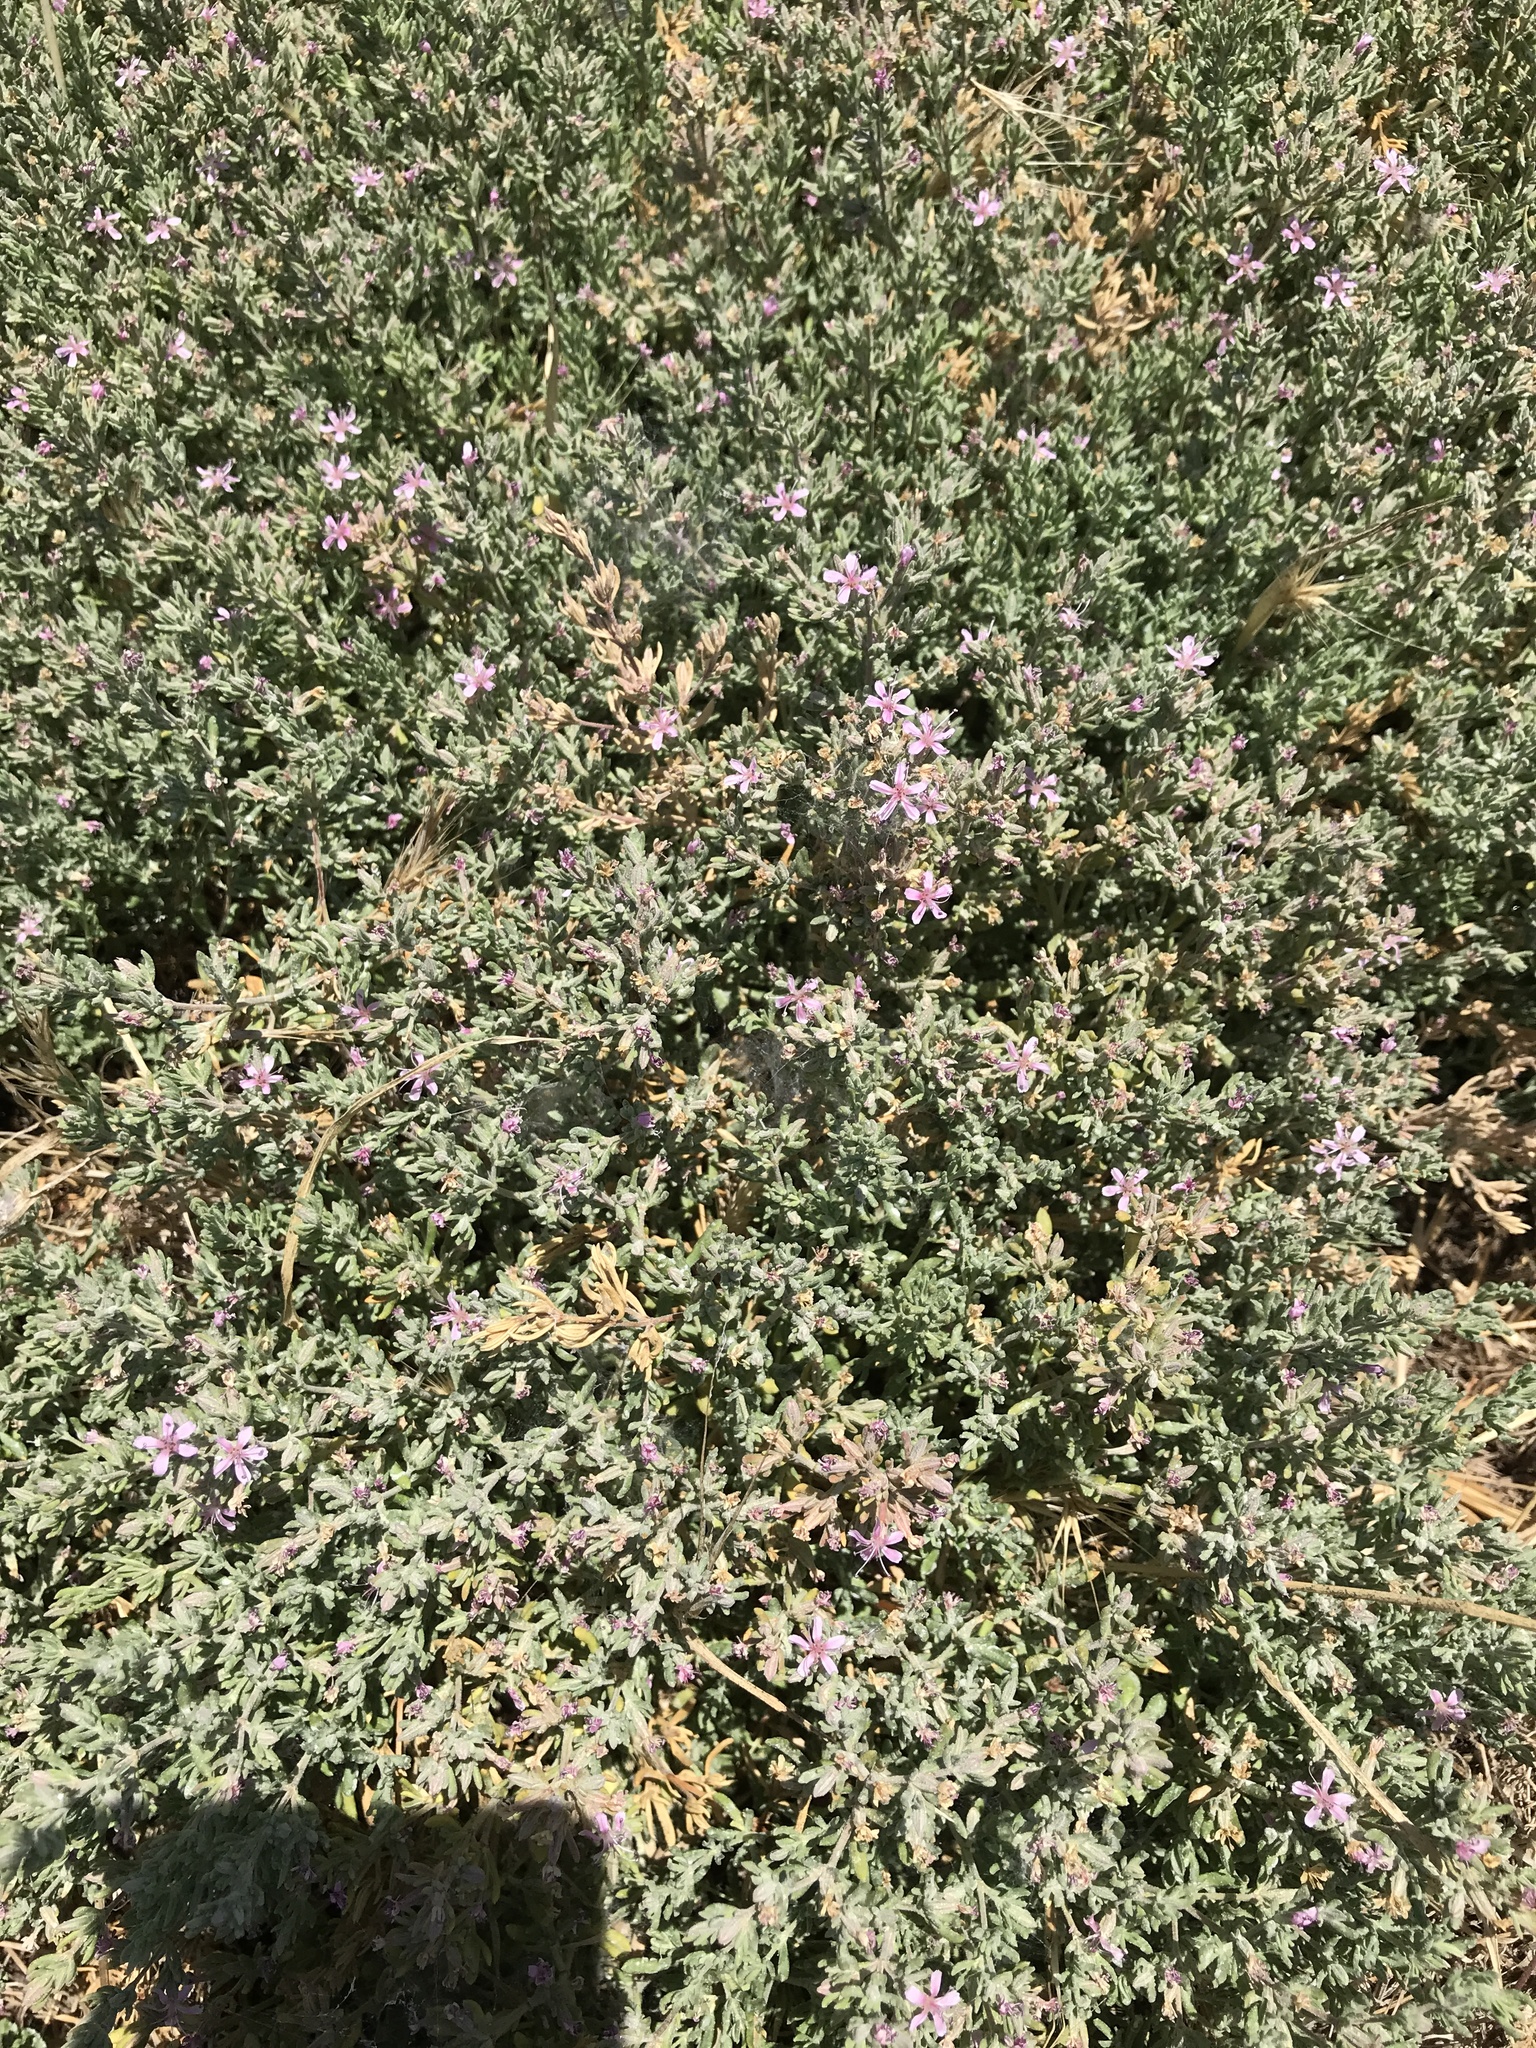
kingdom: Plantae
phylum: Tracheophyta
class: Magnoliopsida
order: Caryophyllales
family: Frankeniaceae
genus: Frankenia
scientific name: Frankenia salina
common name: Alkali seaheath
